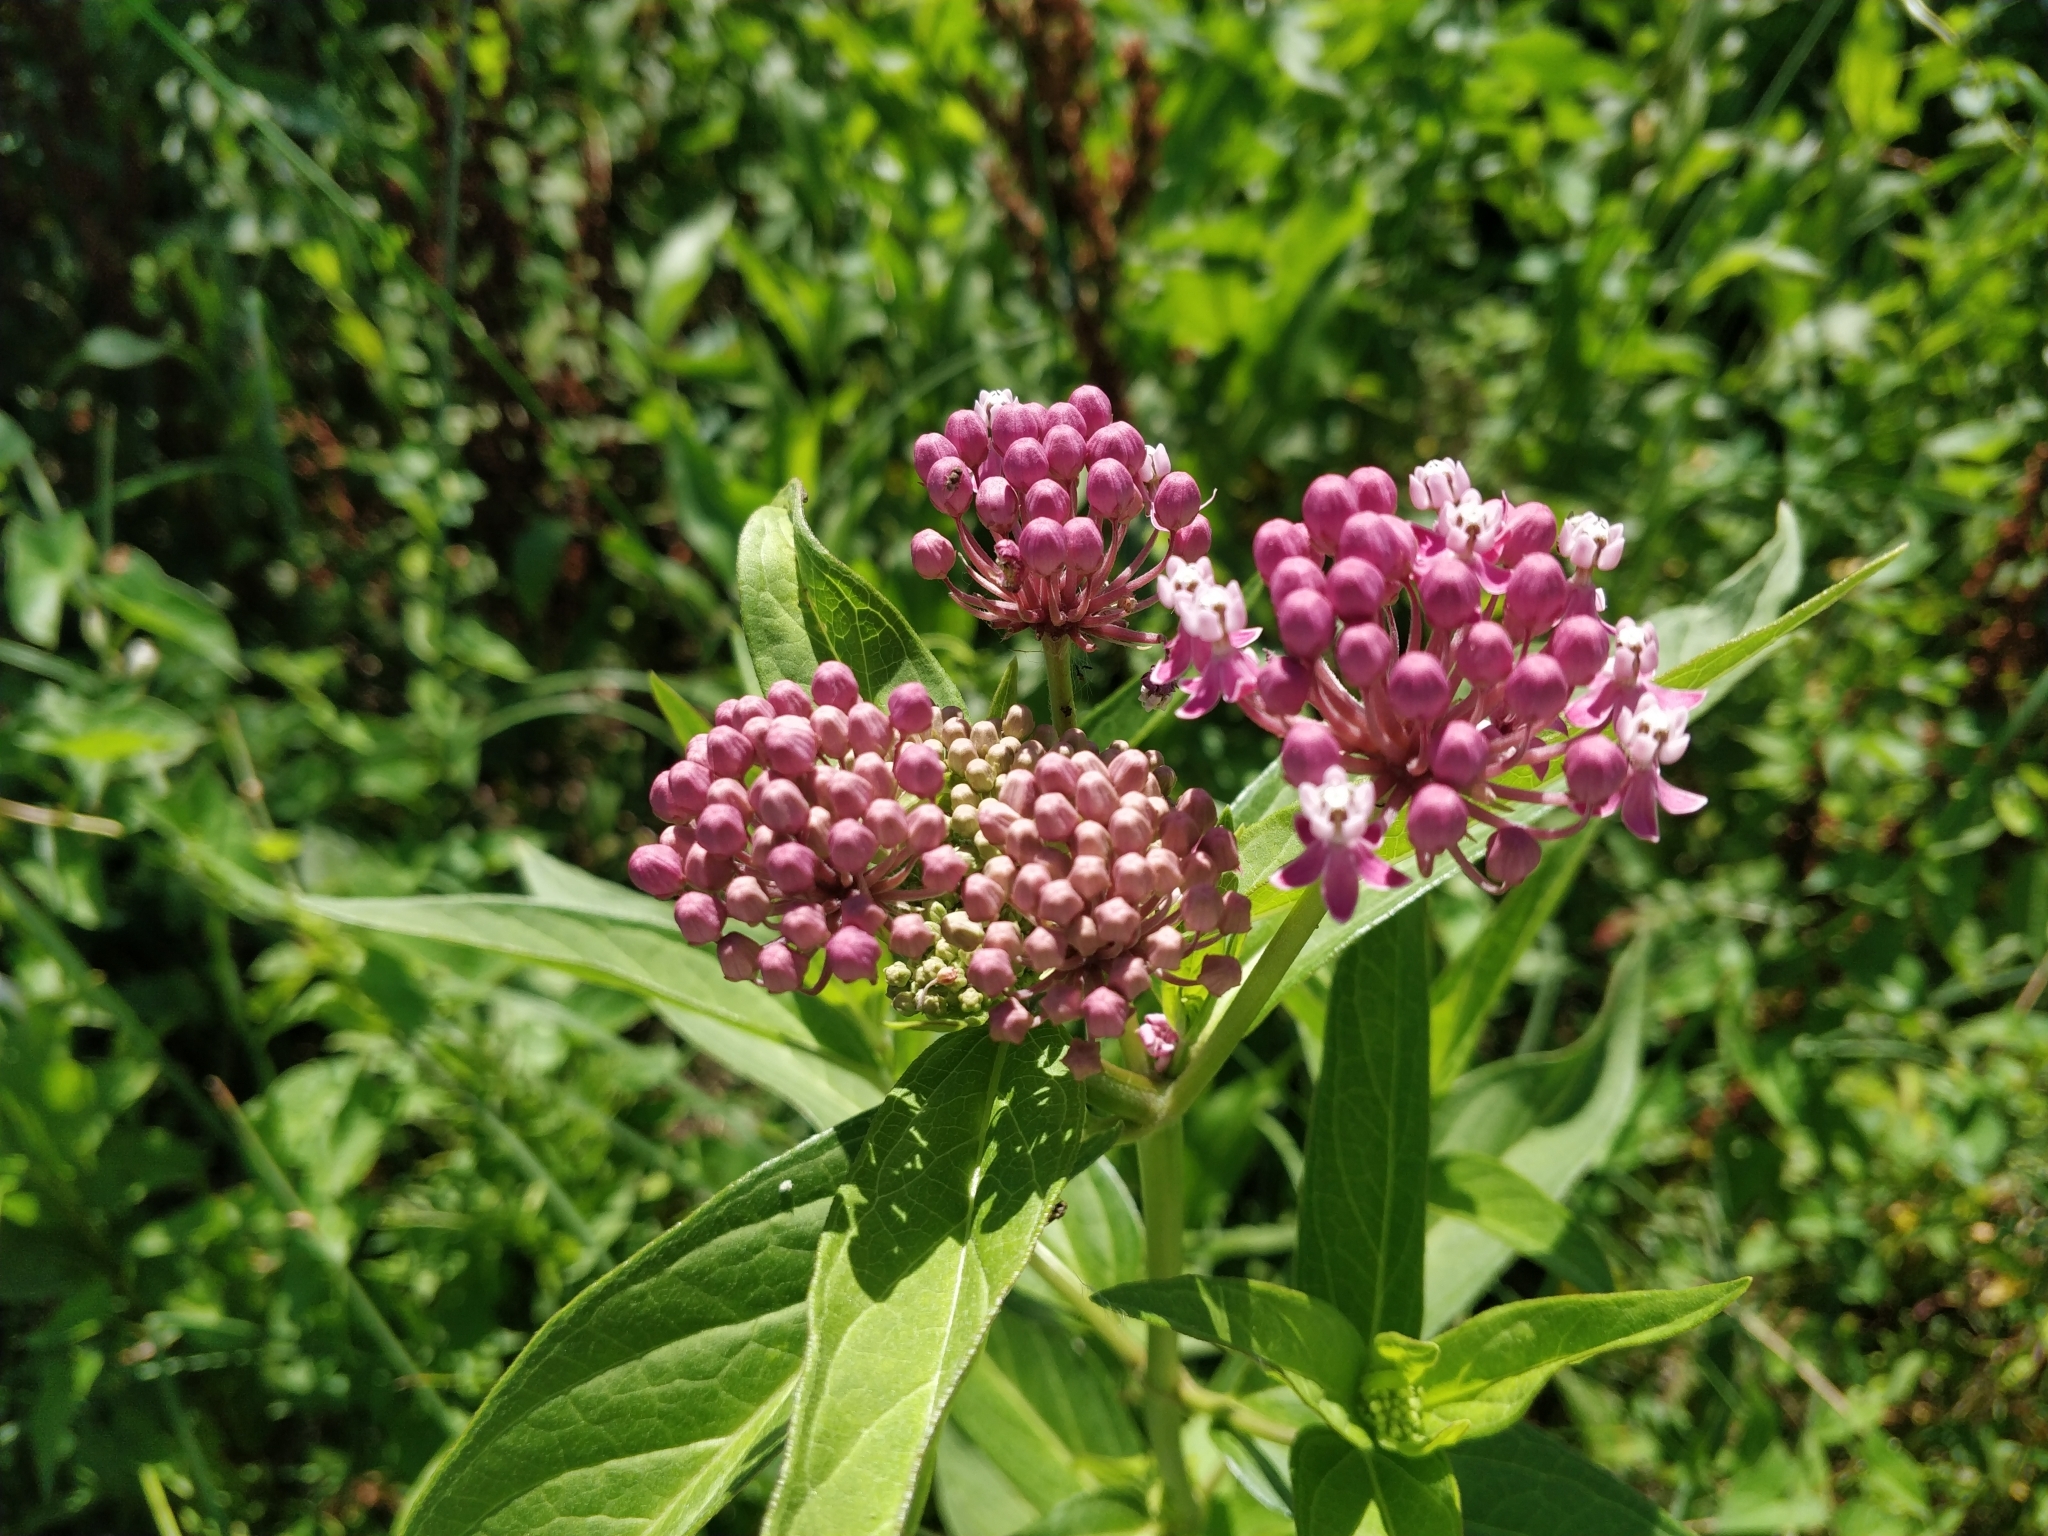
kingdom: Plantae
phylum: Tracheophyta
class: Magnoliopsida
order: Gentianales
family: Apocynaceae
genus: Asclepias
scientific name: Asclepias incarnata
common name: Swamp milkweed
